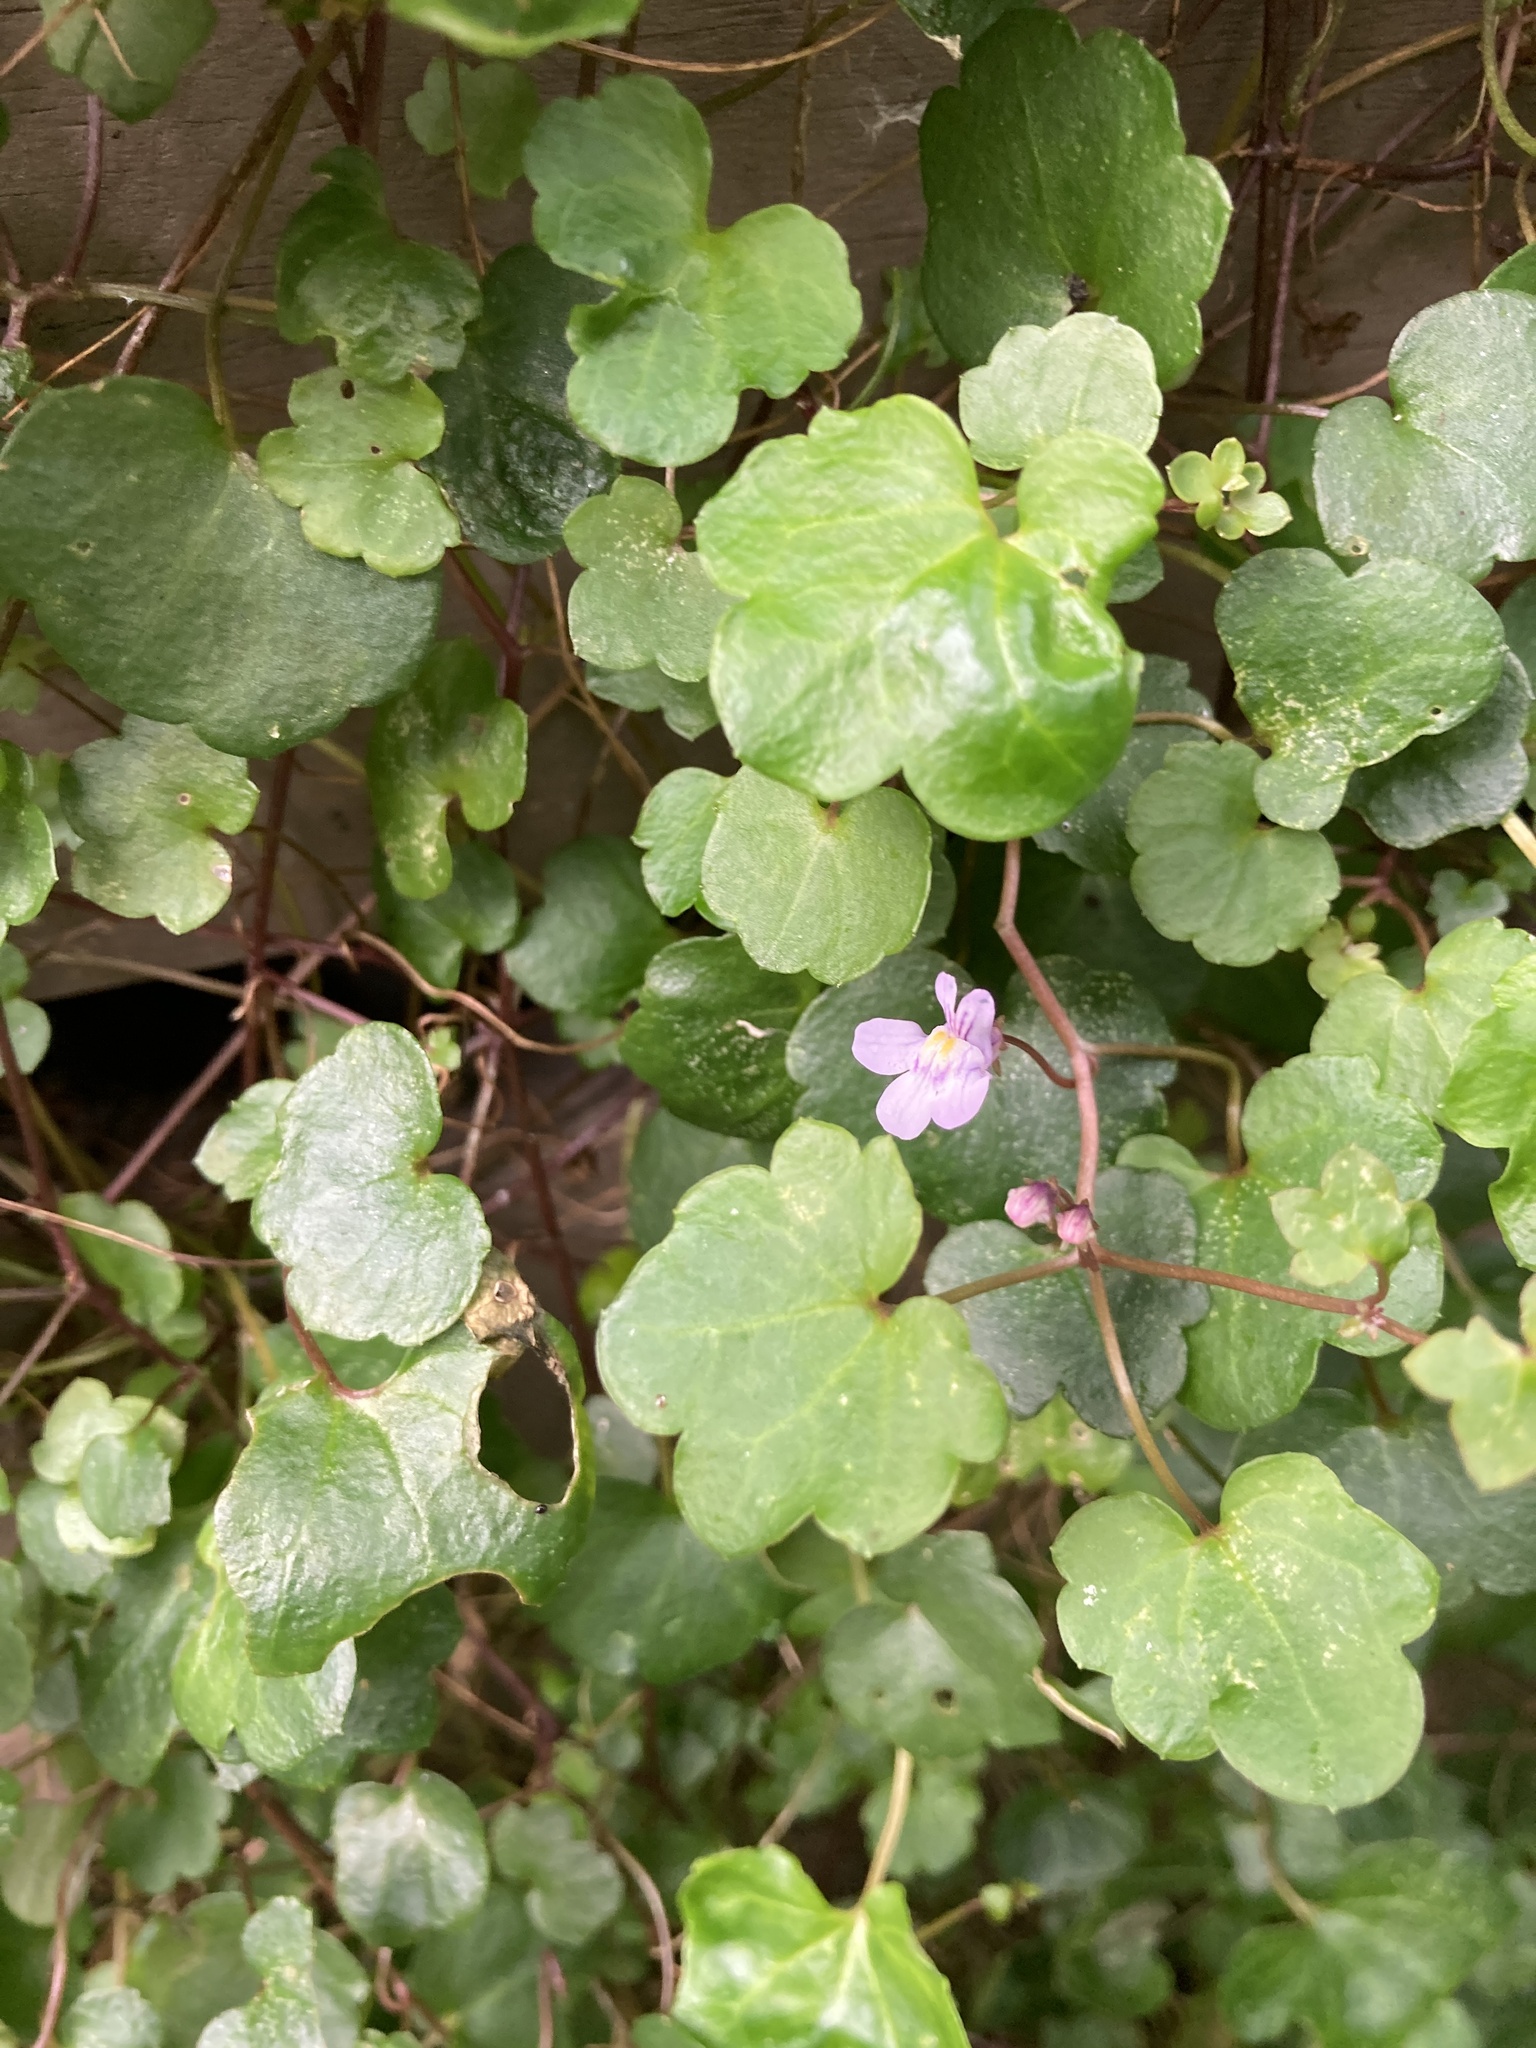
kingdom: Plantae
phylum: Tracheophyta
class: Magnoliopsida
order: Lamiales
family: Plantaginaceae
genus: Cymbalaria
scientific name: Cymbalaria muralis
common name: Ivy-leaved toadflax
